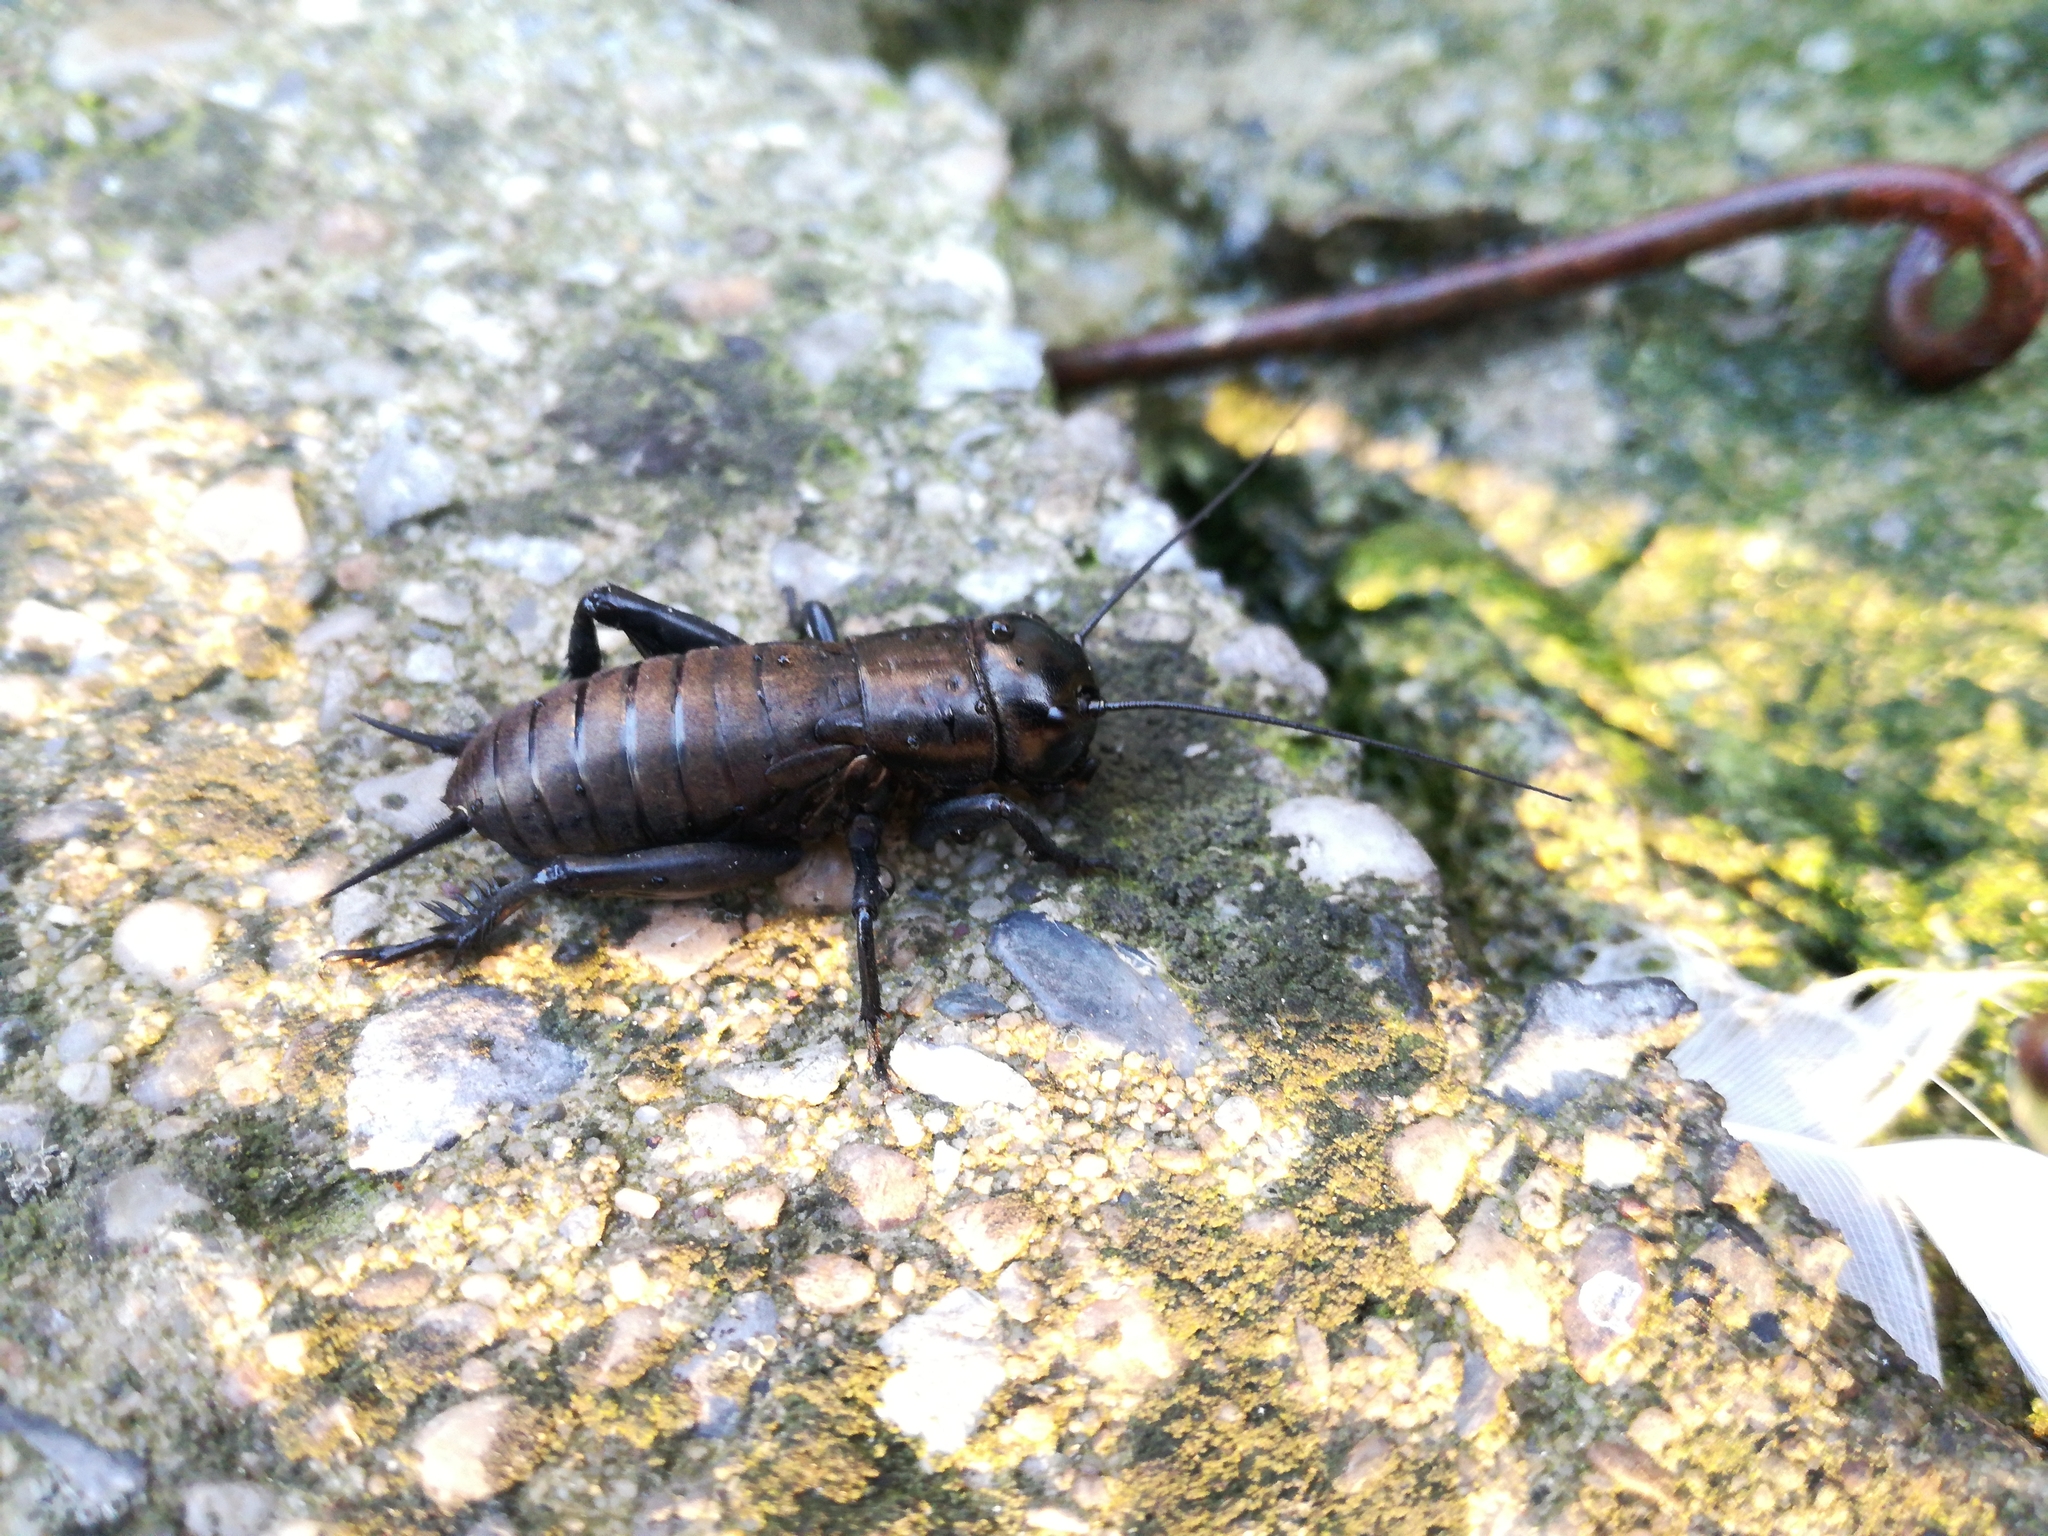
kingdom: Animalia
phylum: Arthropoda
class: Insecta
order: Orthoptera
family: Gryllidae
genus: Gryllus
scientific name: Gryllus campestris
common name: Field cricket
